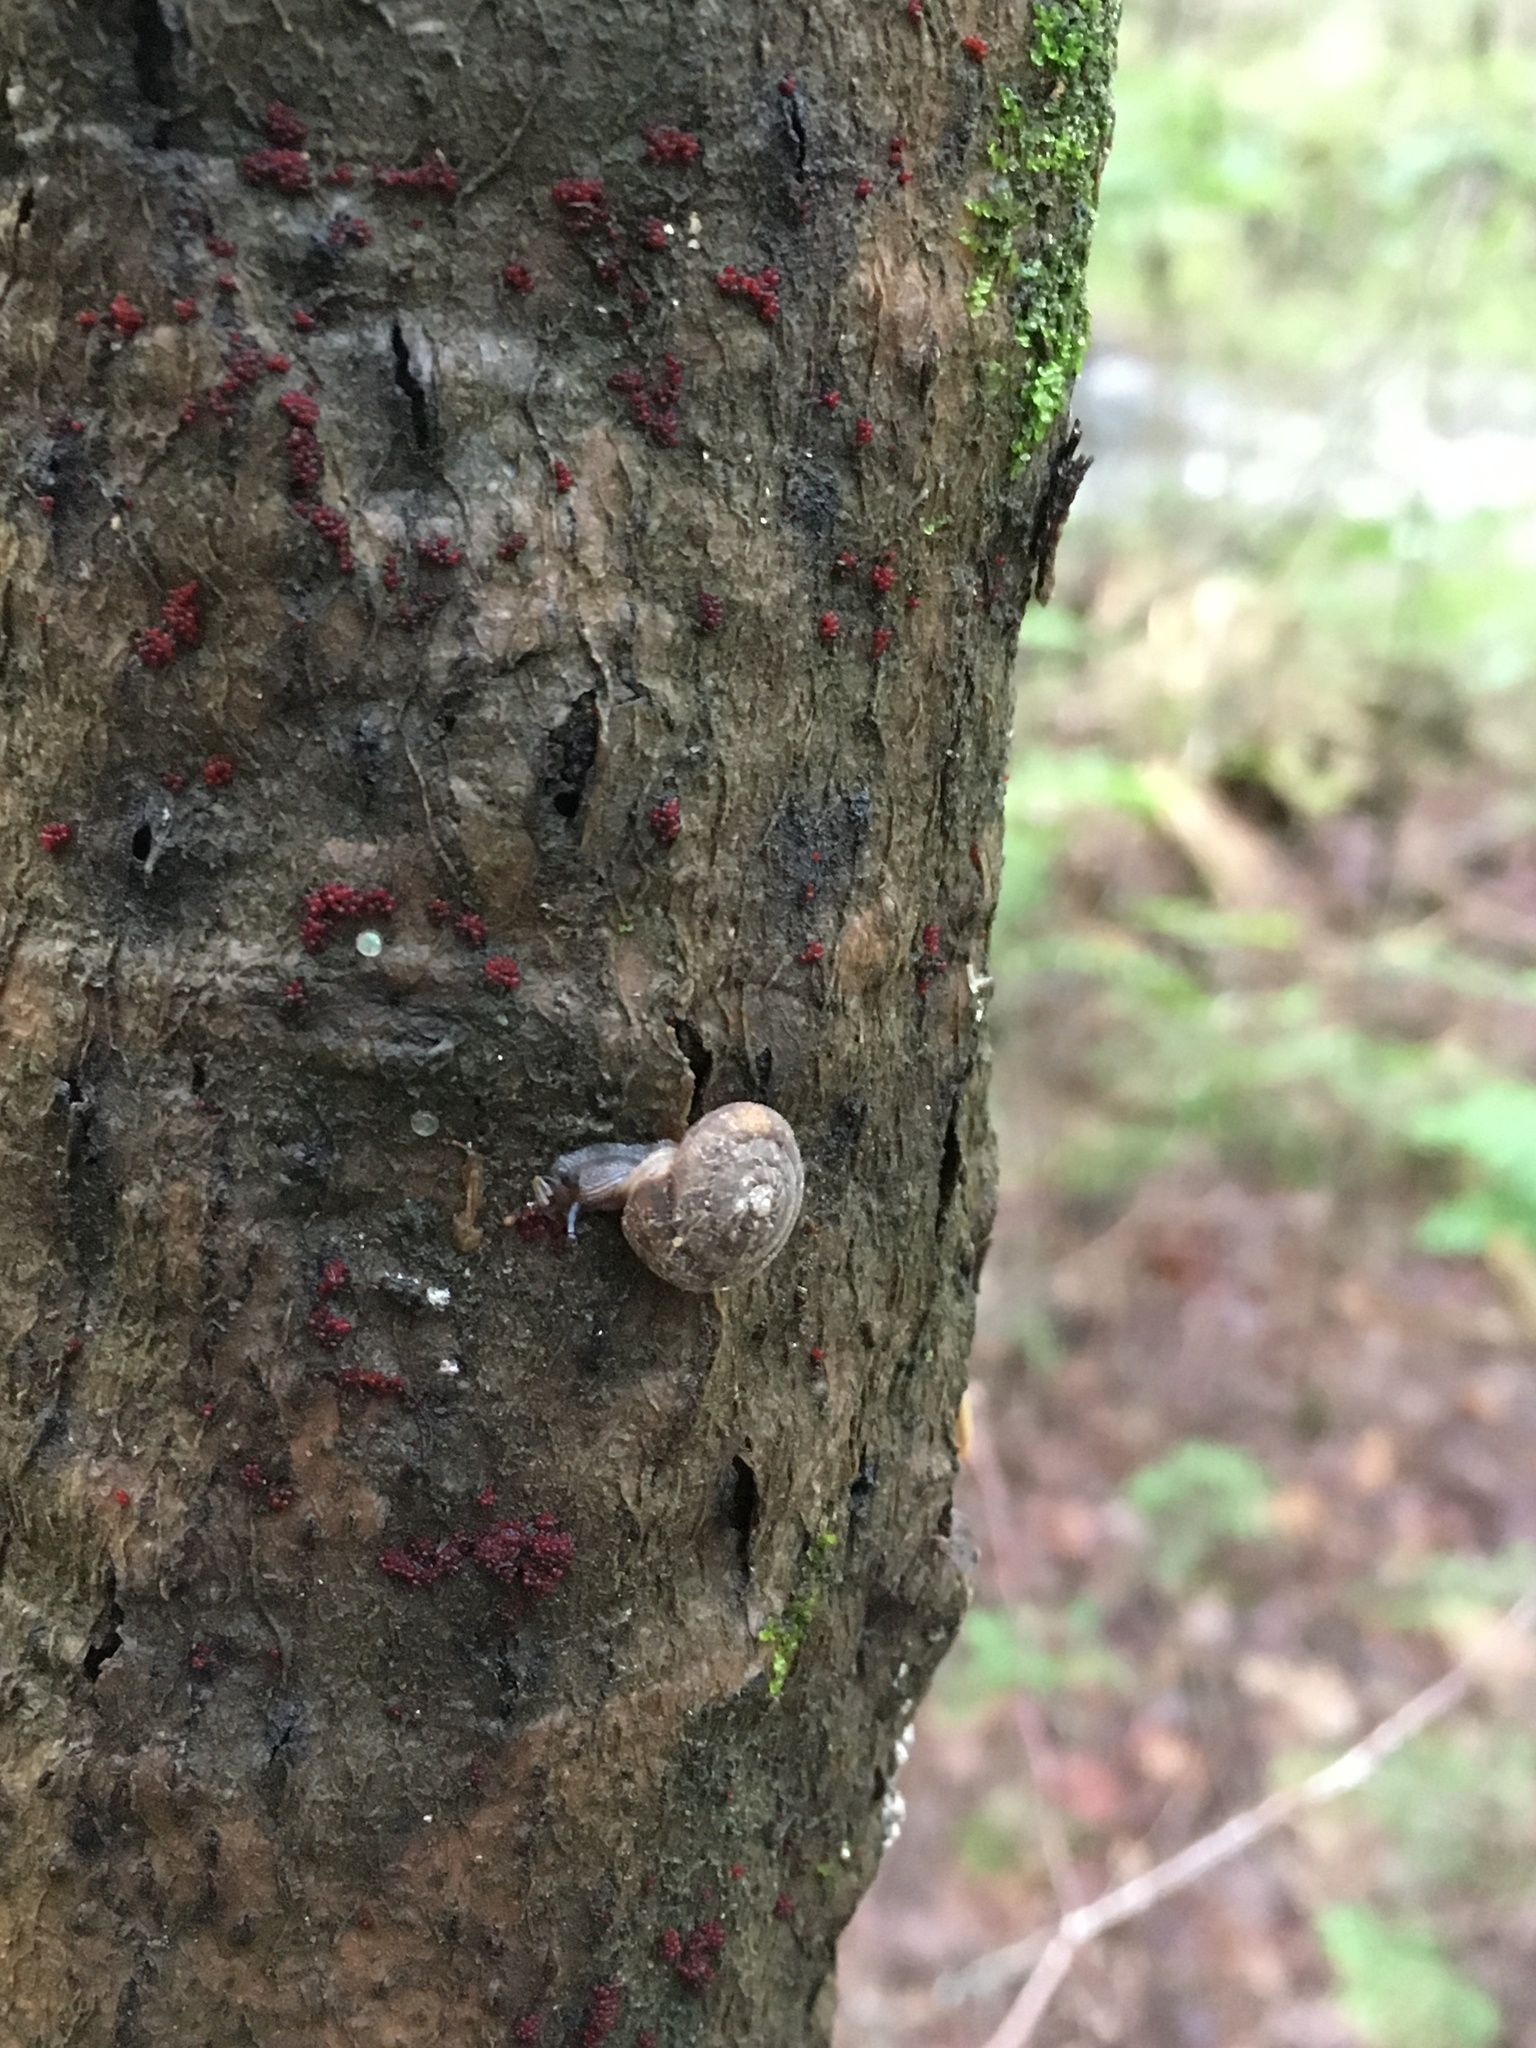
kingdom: Animalia
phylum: Mollusca
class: Gastropoda
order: Stylommatophora
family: Discidae
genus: Discus
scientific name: Discus rotundatus
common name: Rounded snail
